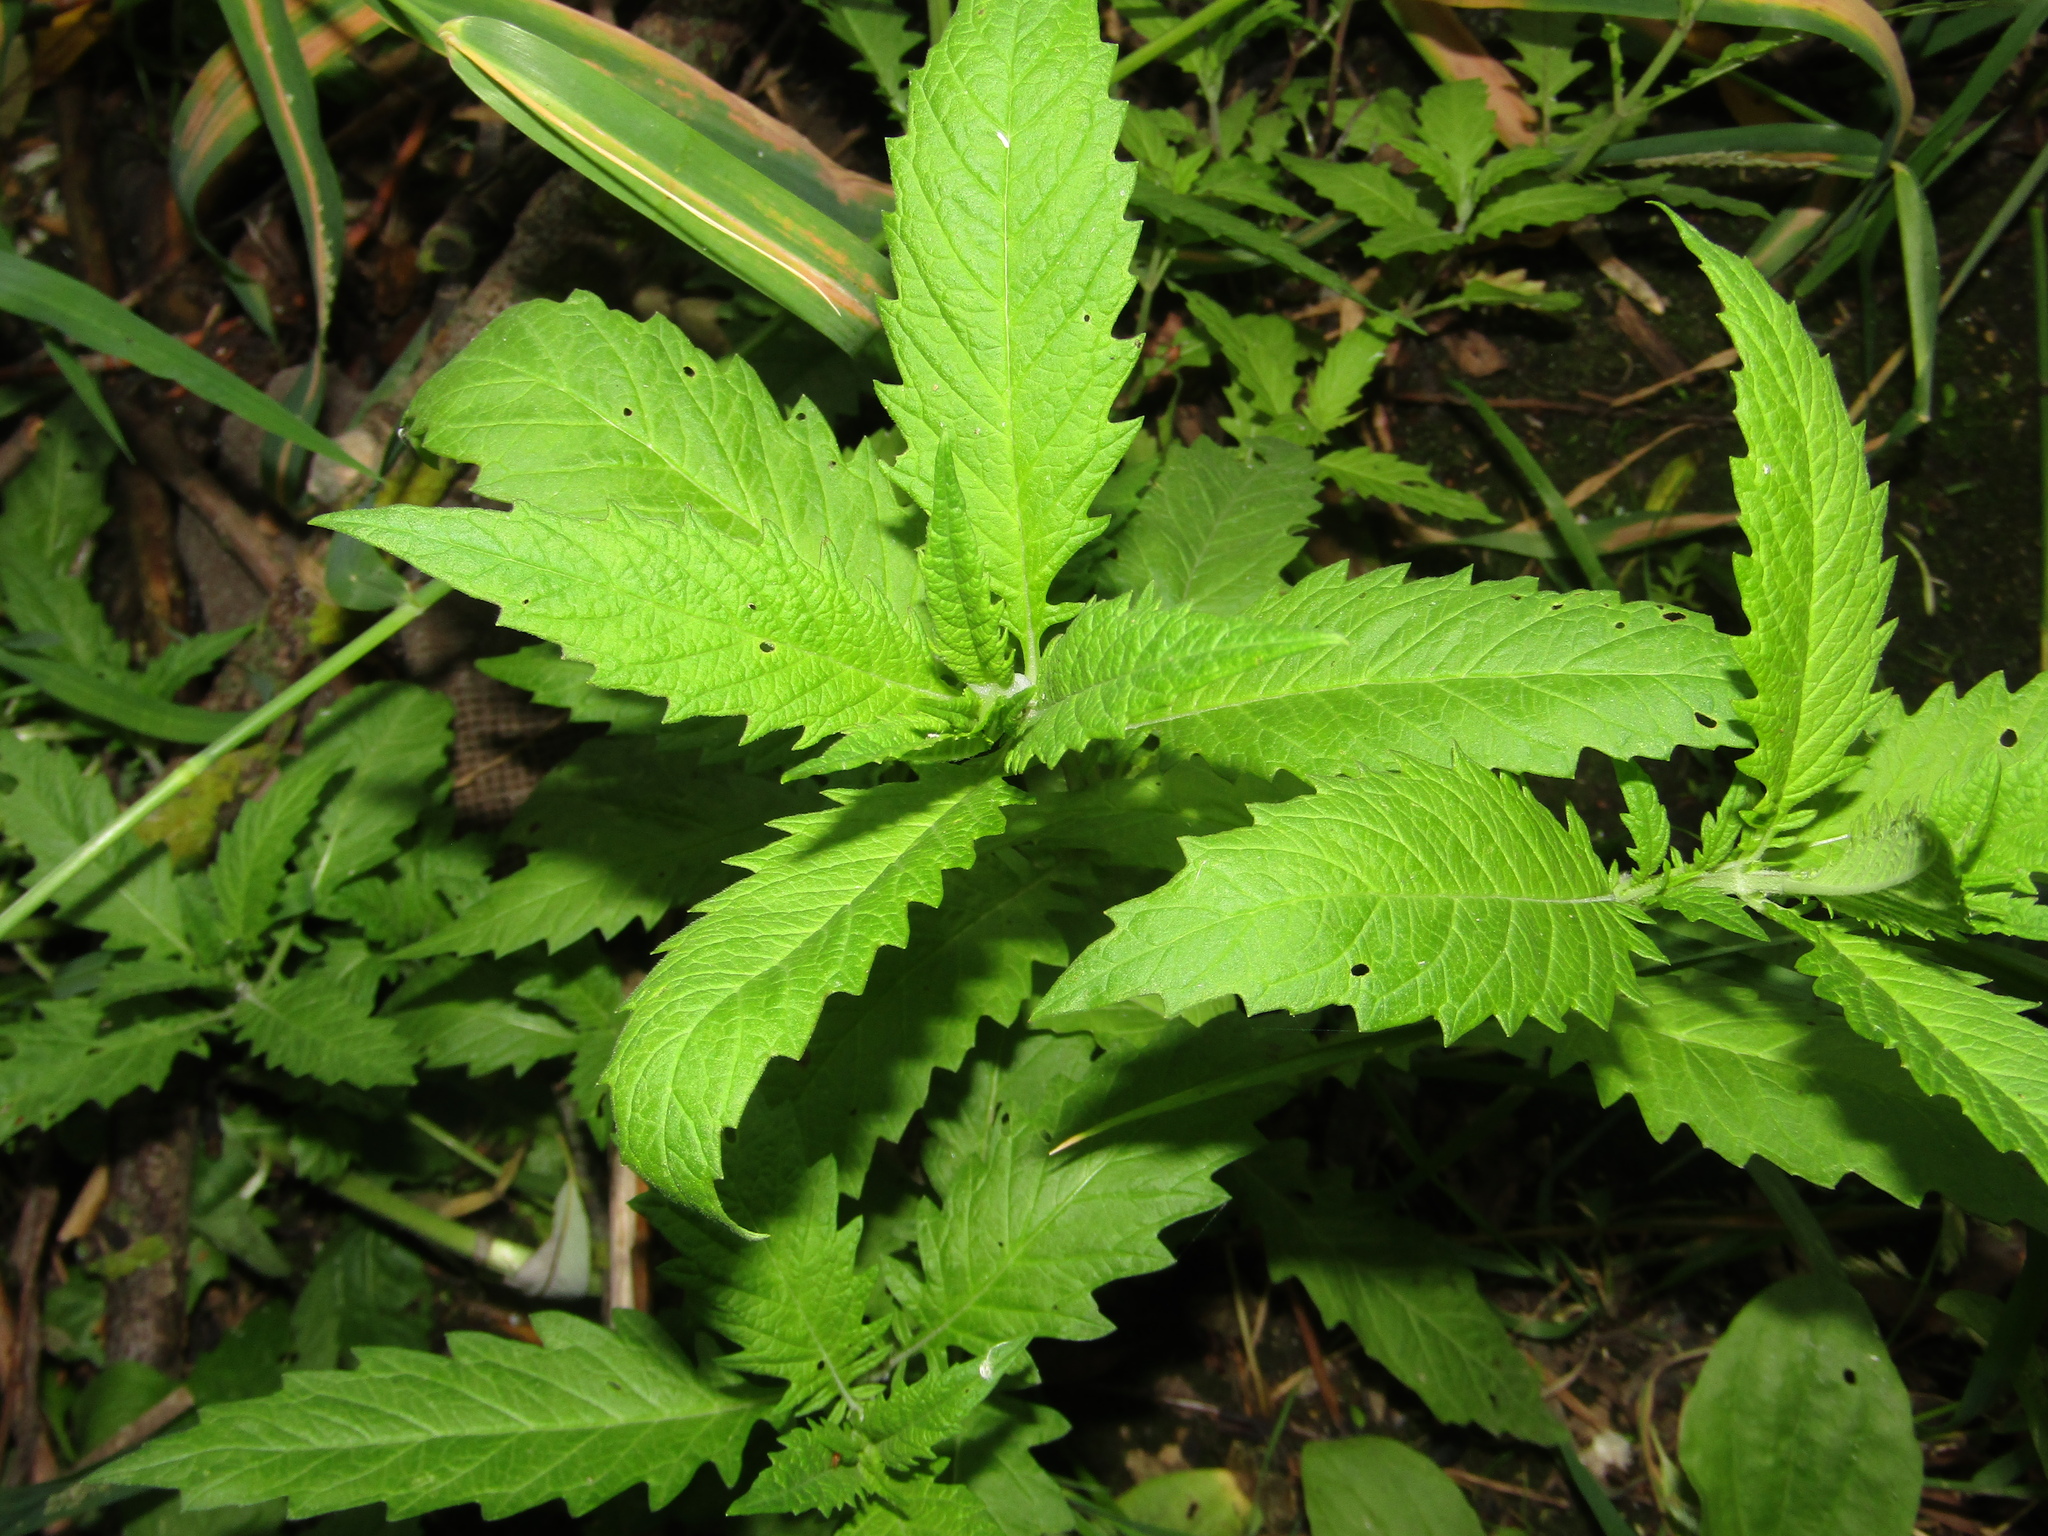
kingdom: Plantae
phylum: Tracheophyta
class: Magnoliopsida
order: Lamiales
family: Lamiaceae
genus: Lycopus
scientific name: Lycopus europaeus
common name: European bugleweed
